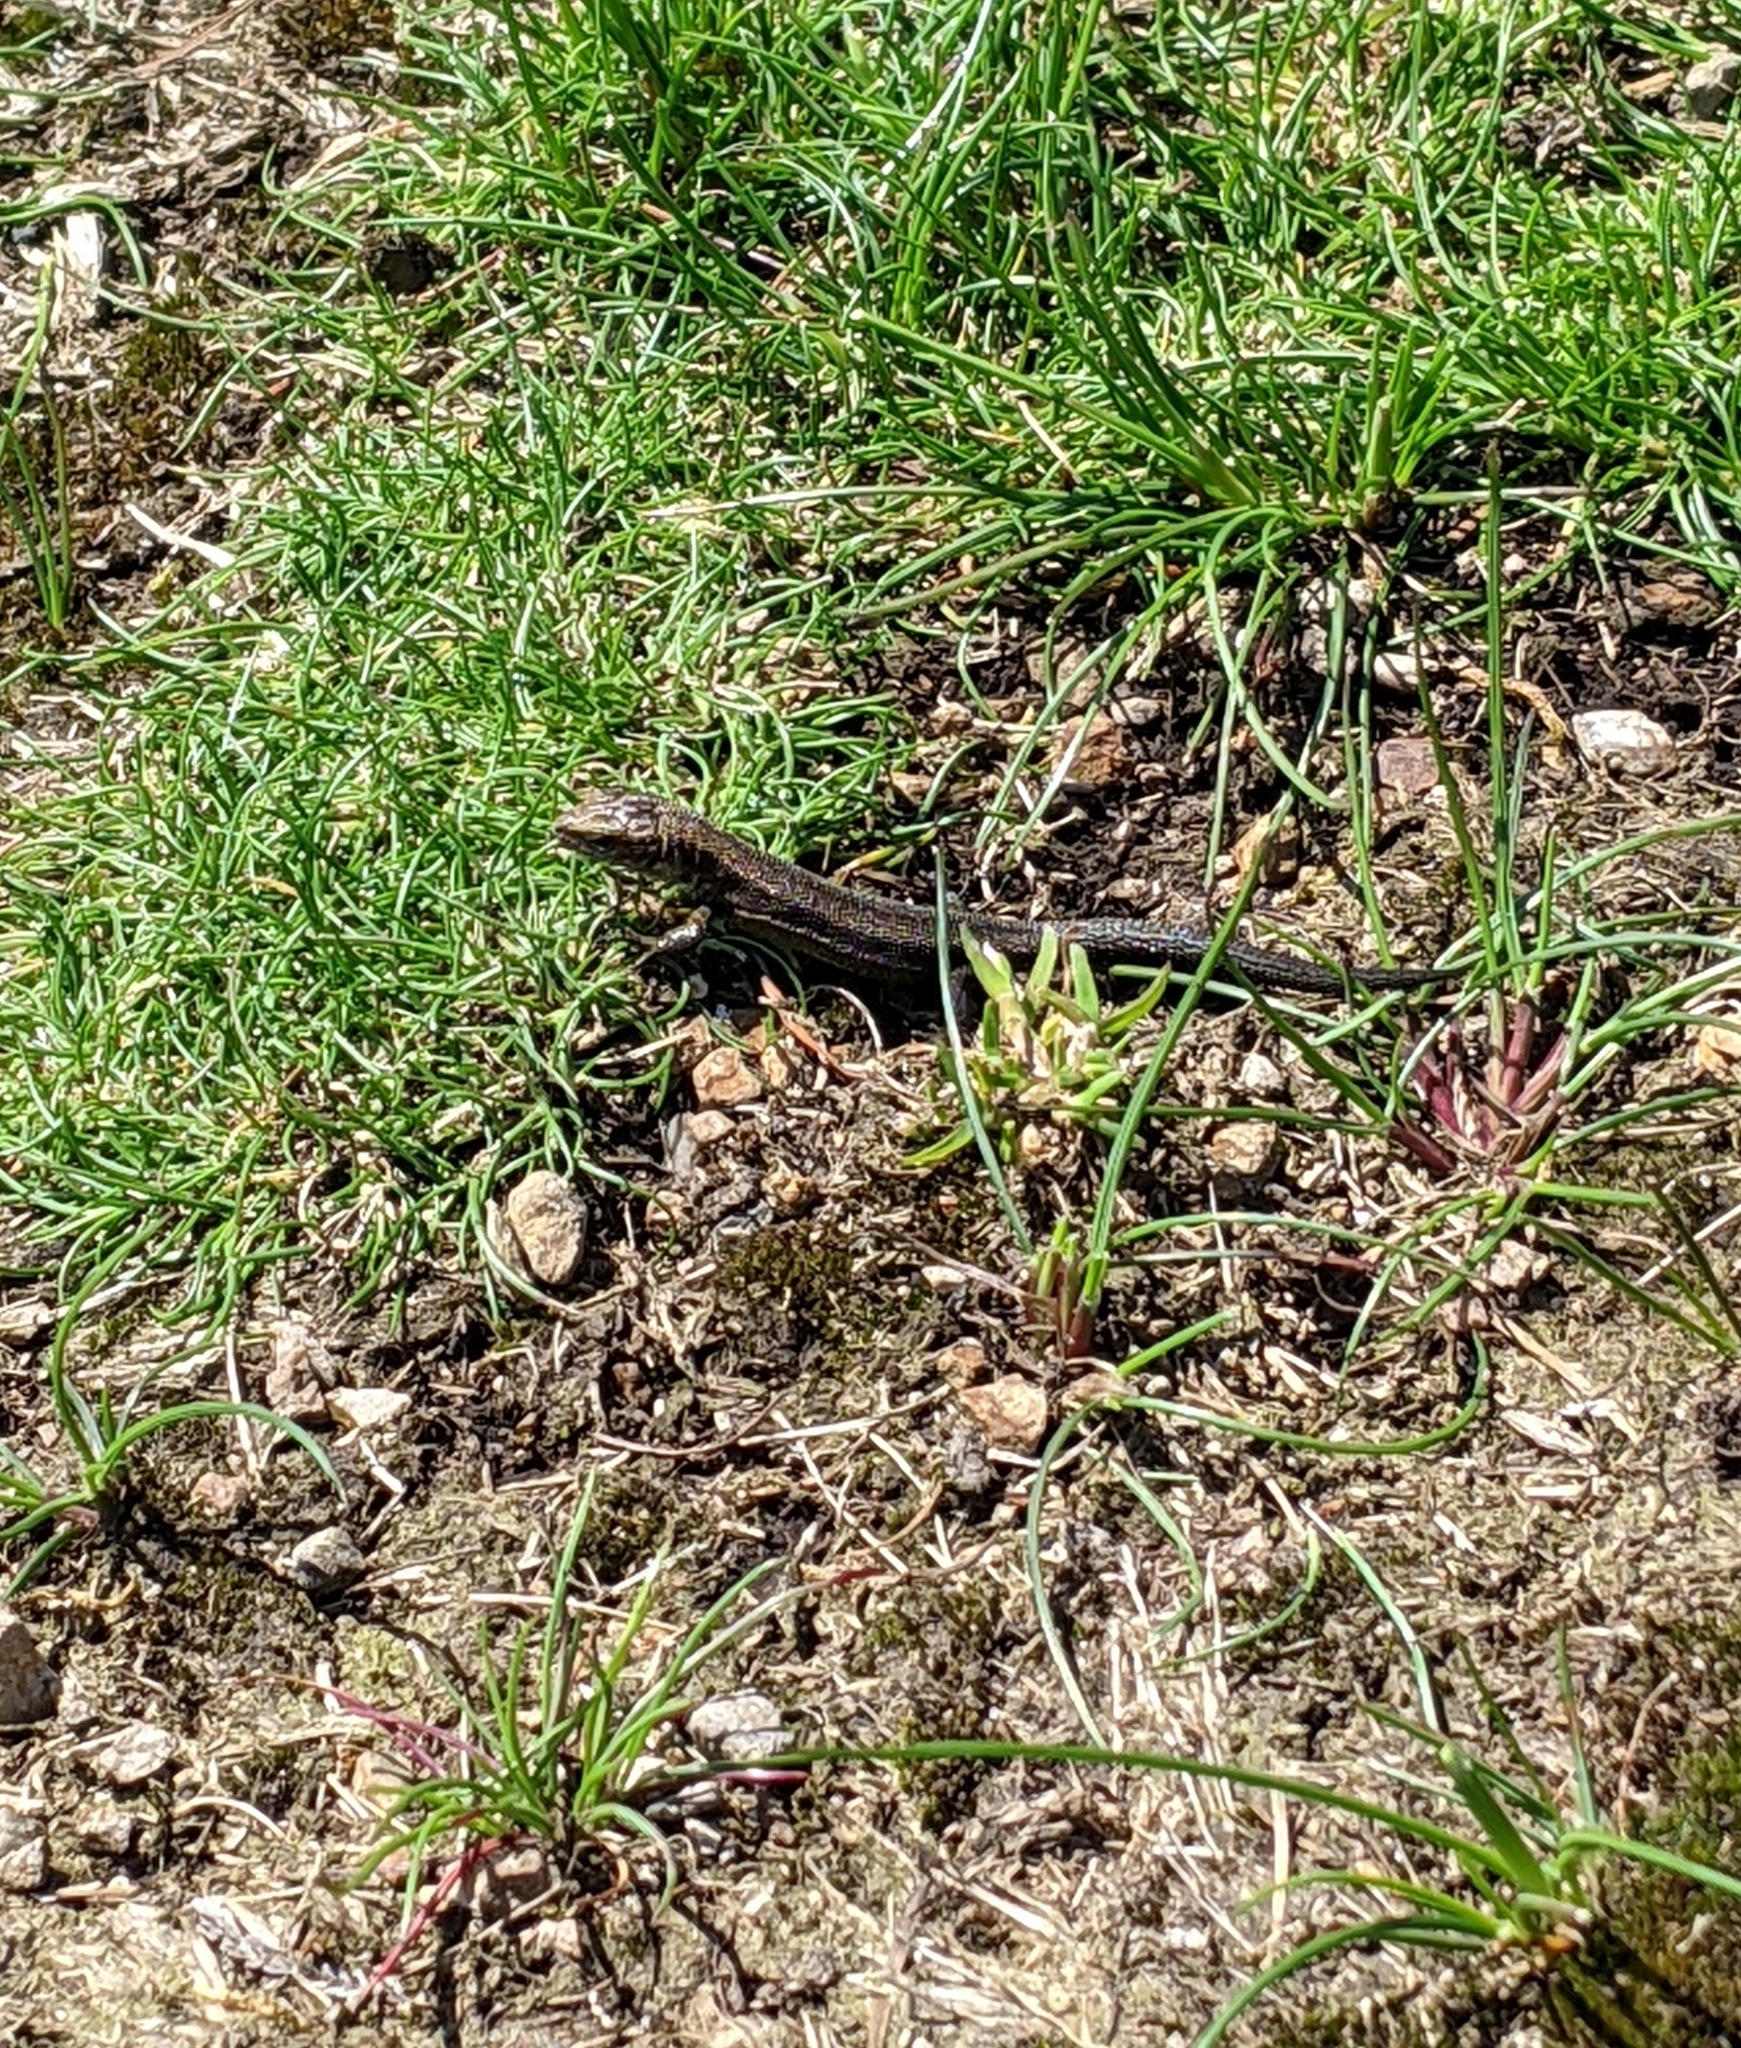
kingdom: Animalia
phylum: Chordata
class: Squamata
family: Lacertidae
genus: Zootoca
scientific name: Zootoca vivipara
